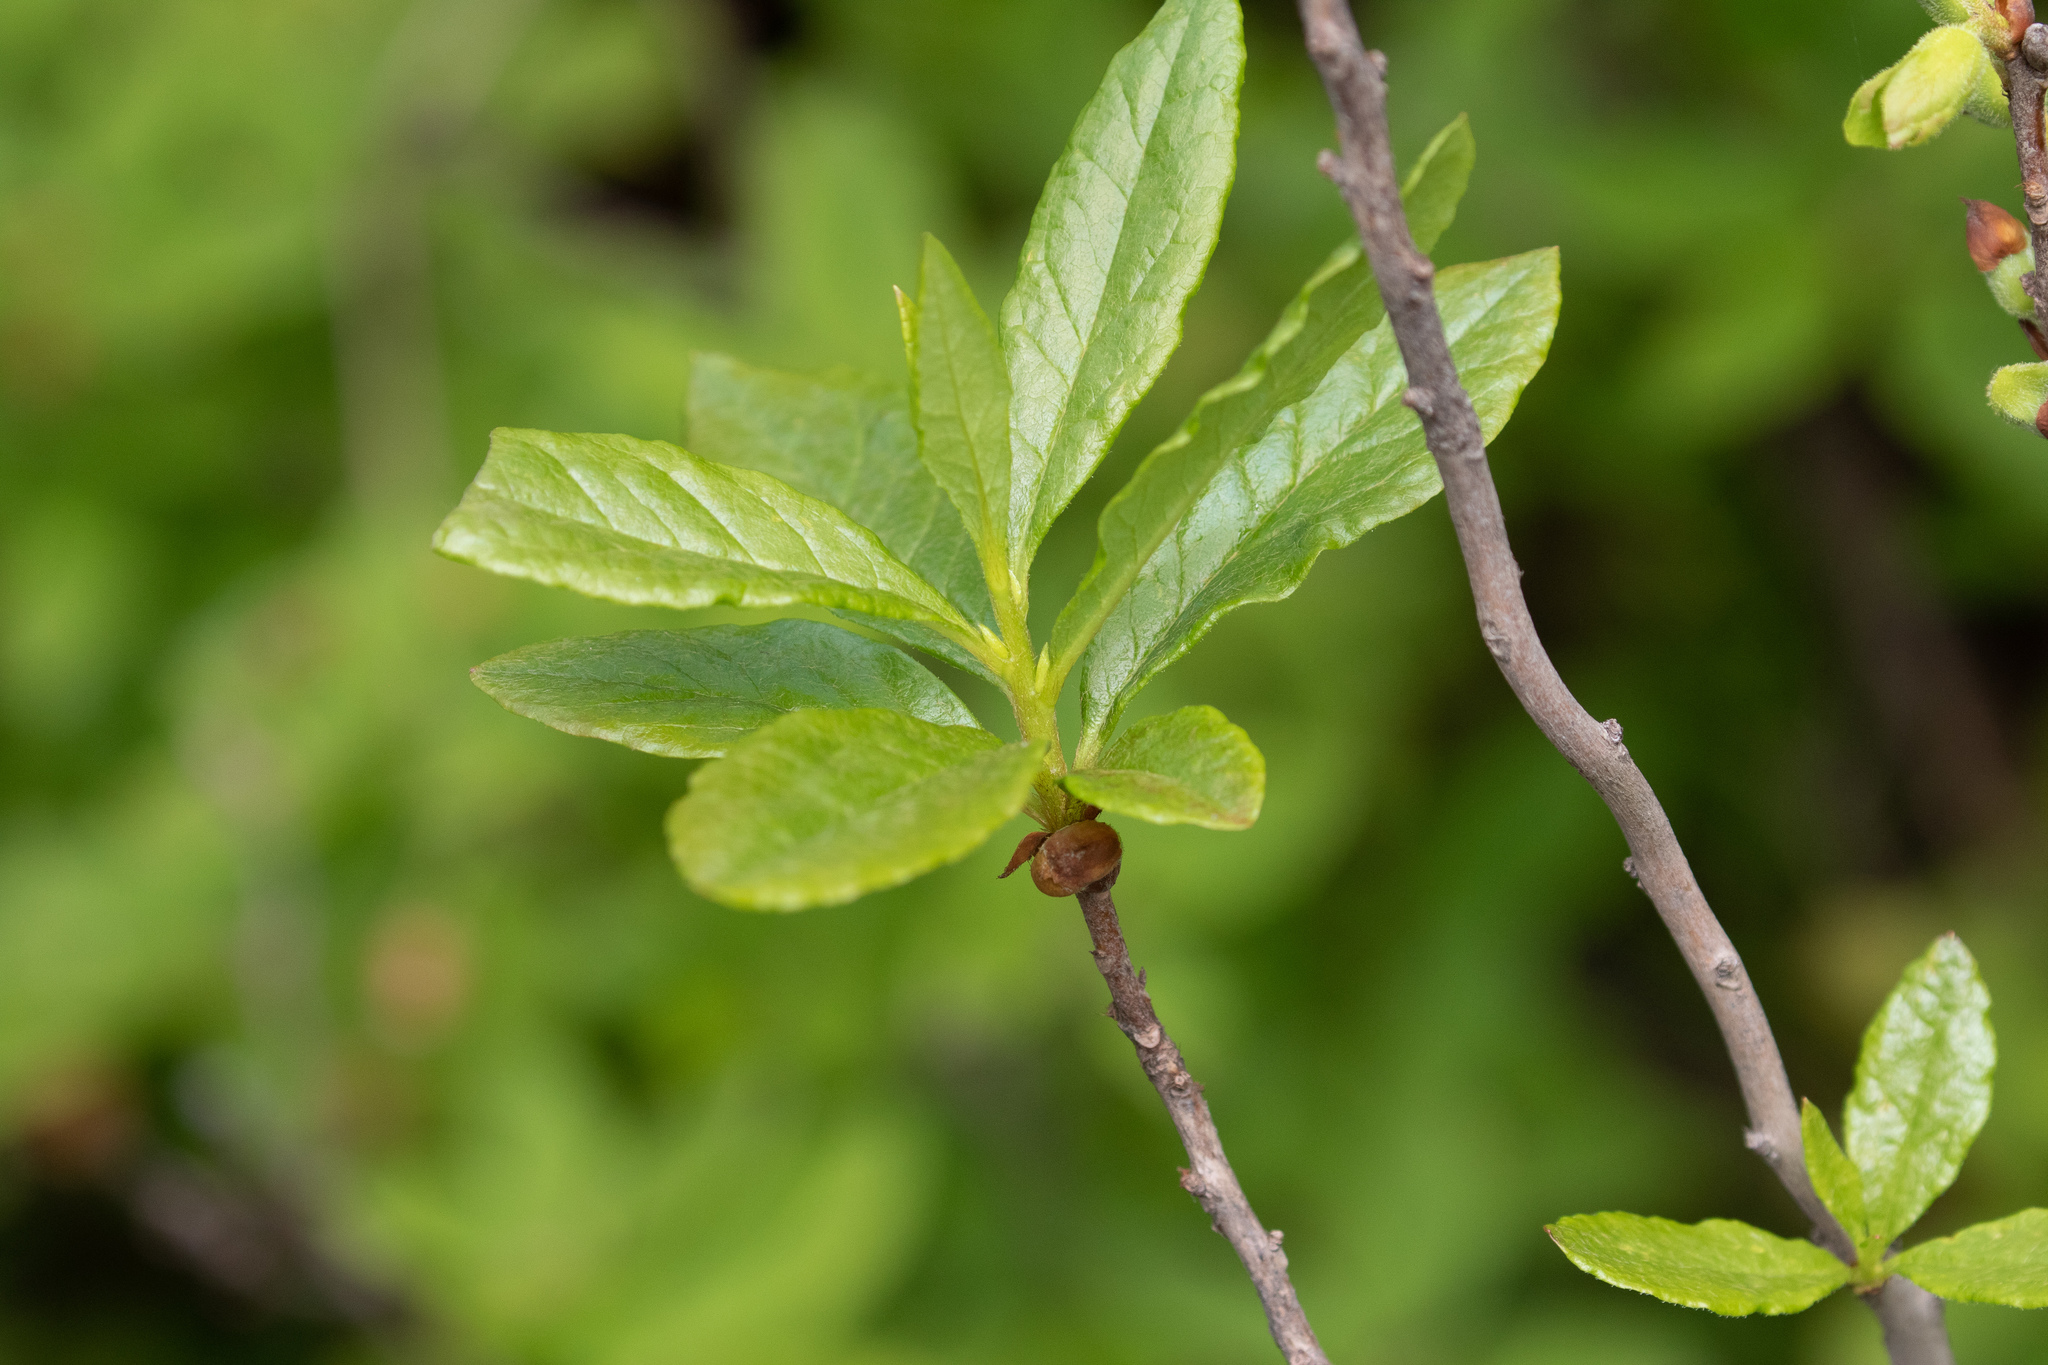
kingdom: Plantae
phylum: Tracheophyta
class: Magnoliopsida
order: Ericales
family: Ericaceae
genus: Rhododendron
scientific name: Rhododendron albiflorum
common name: White rhododendron
